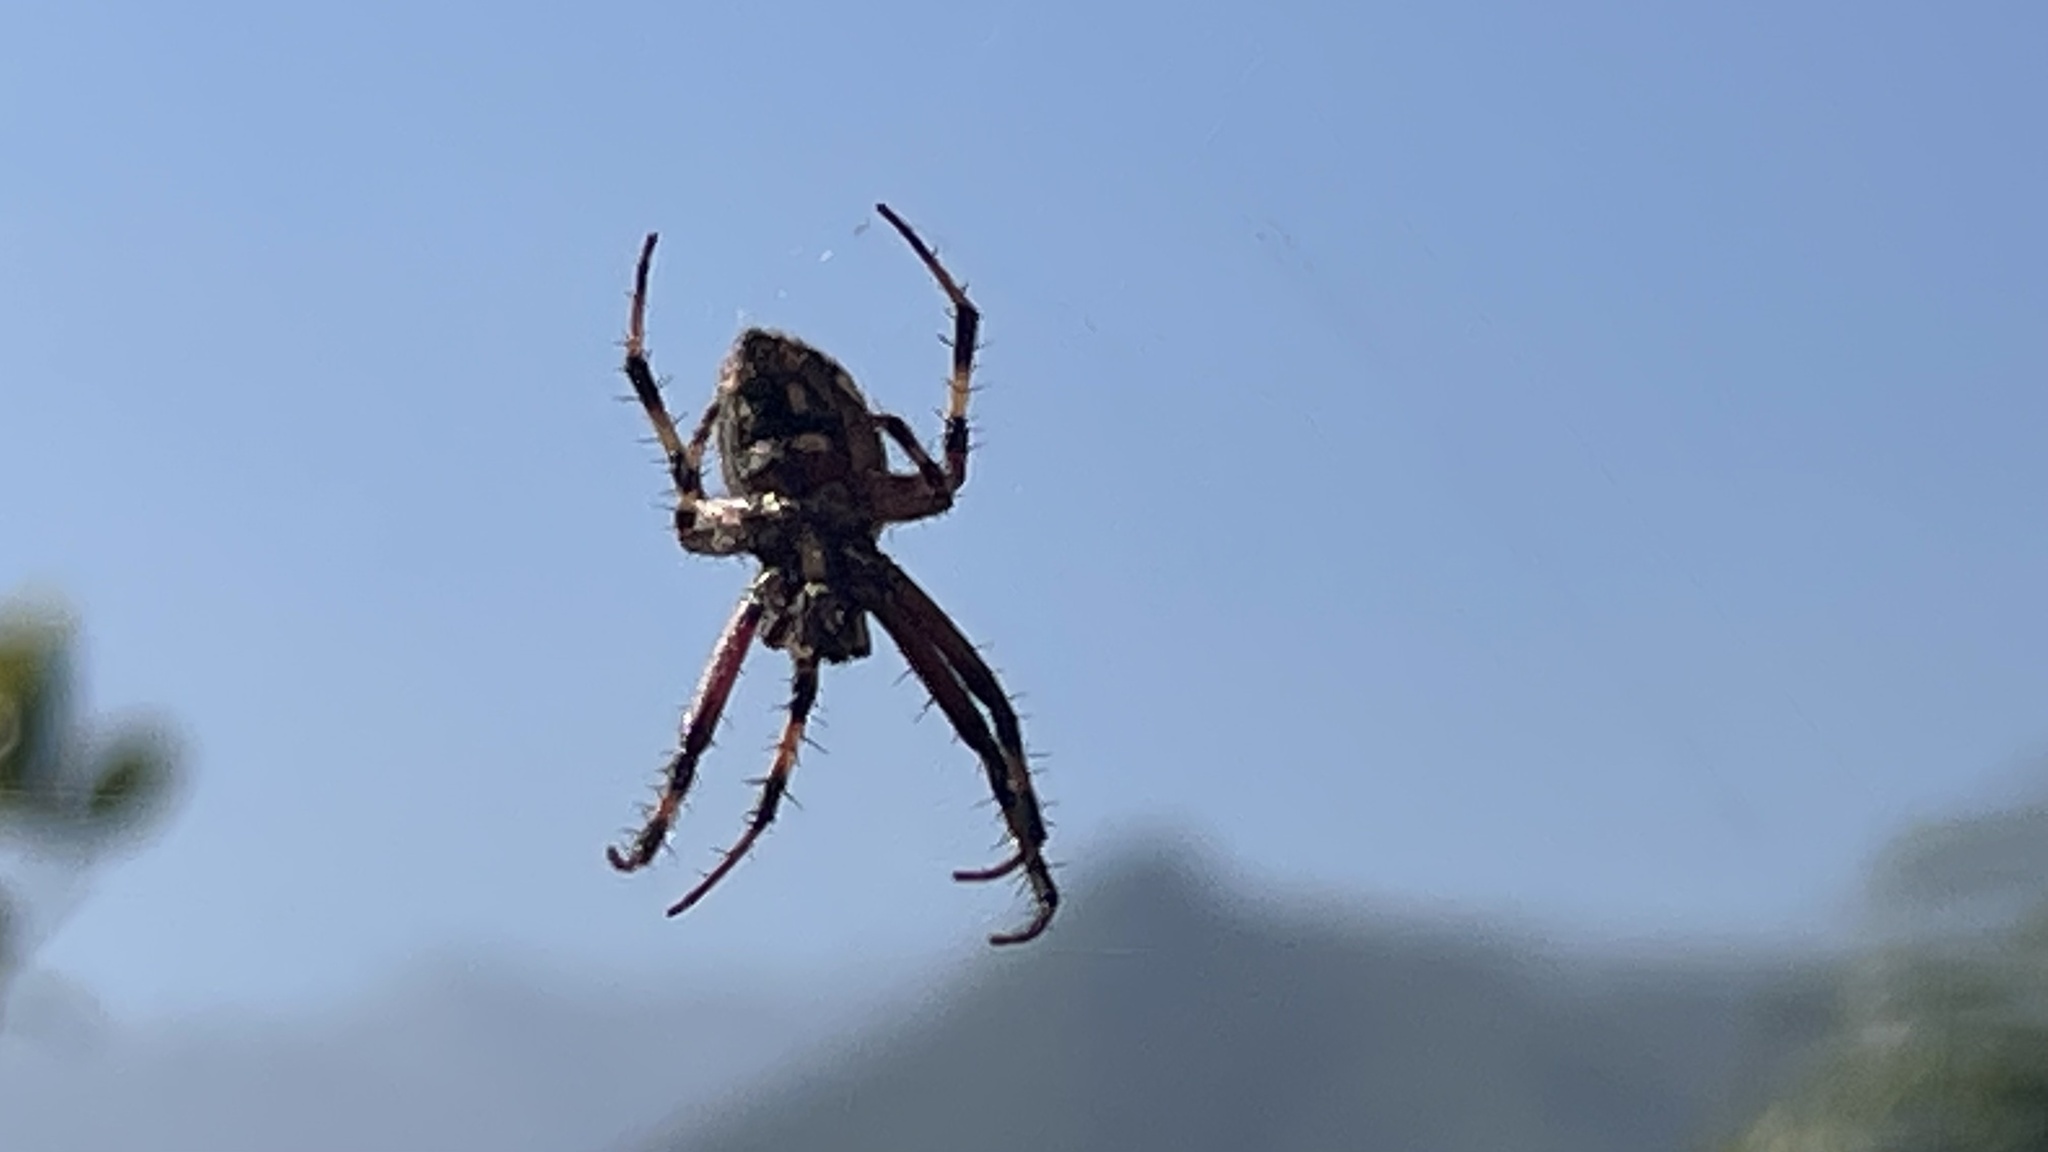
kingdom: Animalia
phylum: Arthropoda
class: Arachnida
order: Araneae
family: Araneidae
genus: Neoscona
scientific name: Neoscona oaxacensis
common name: Orb weavers
